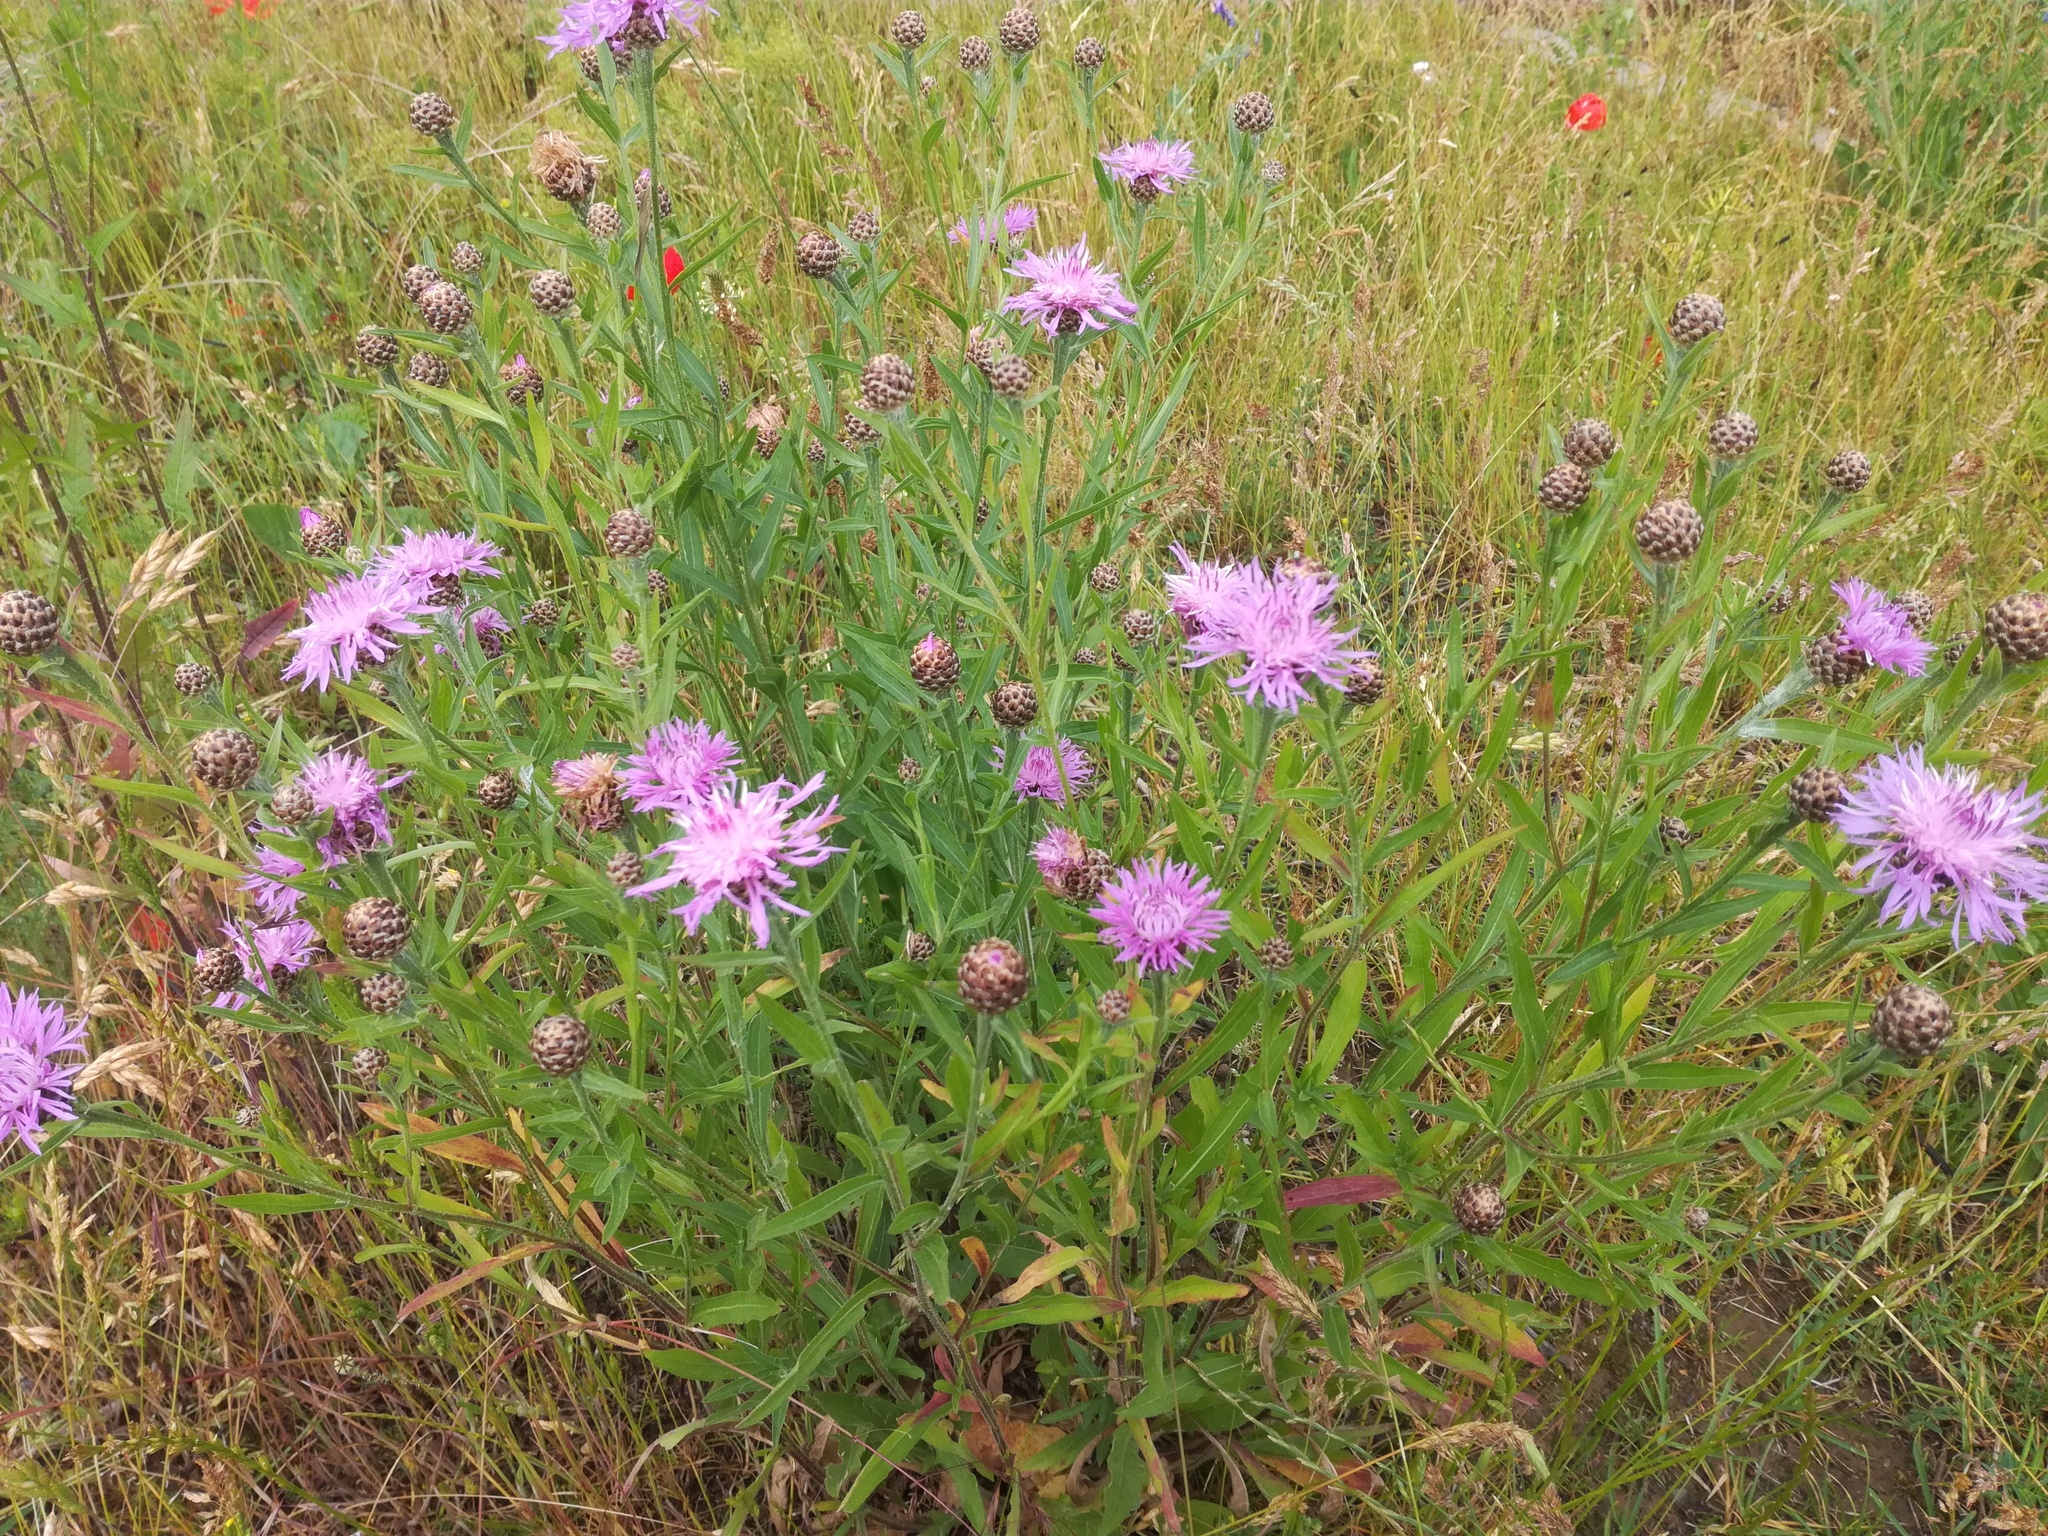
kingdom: Plantae
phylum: Tracheophyta
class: Magnoliopsida
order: Asterales
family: Asteraceae
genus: Centaurea
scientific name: Centaurea jacea
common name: Brown knapweed
